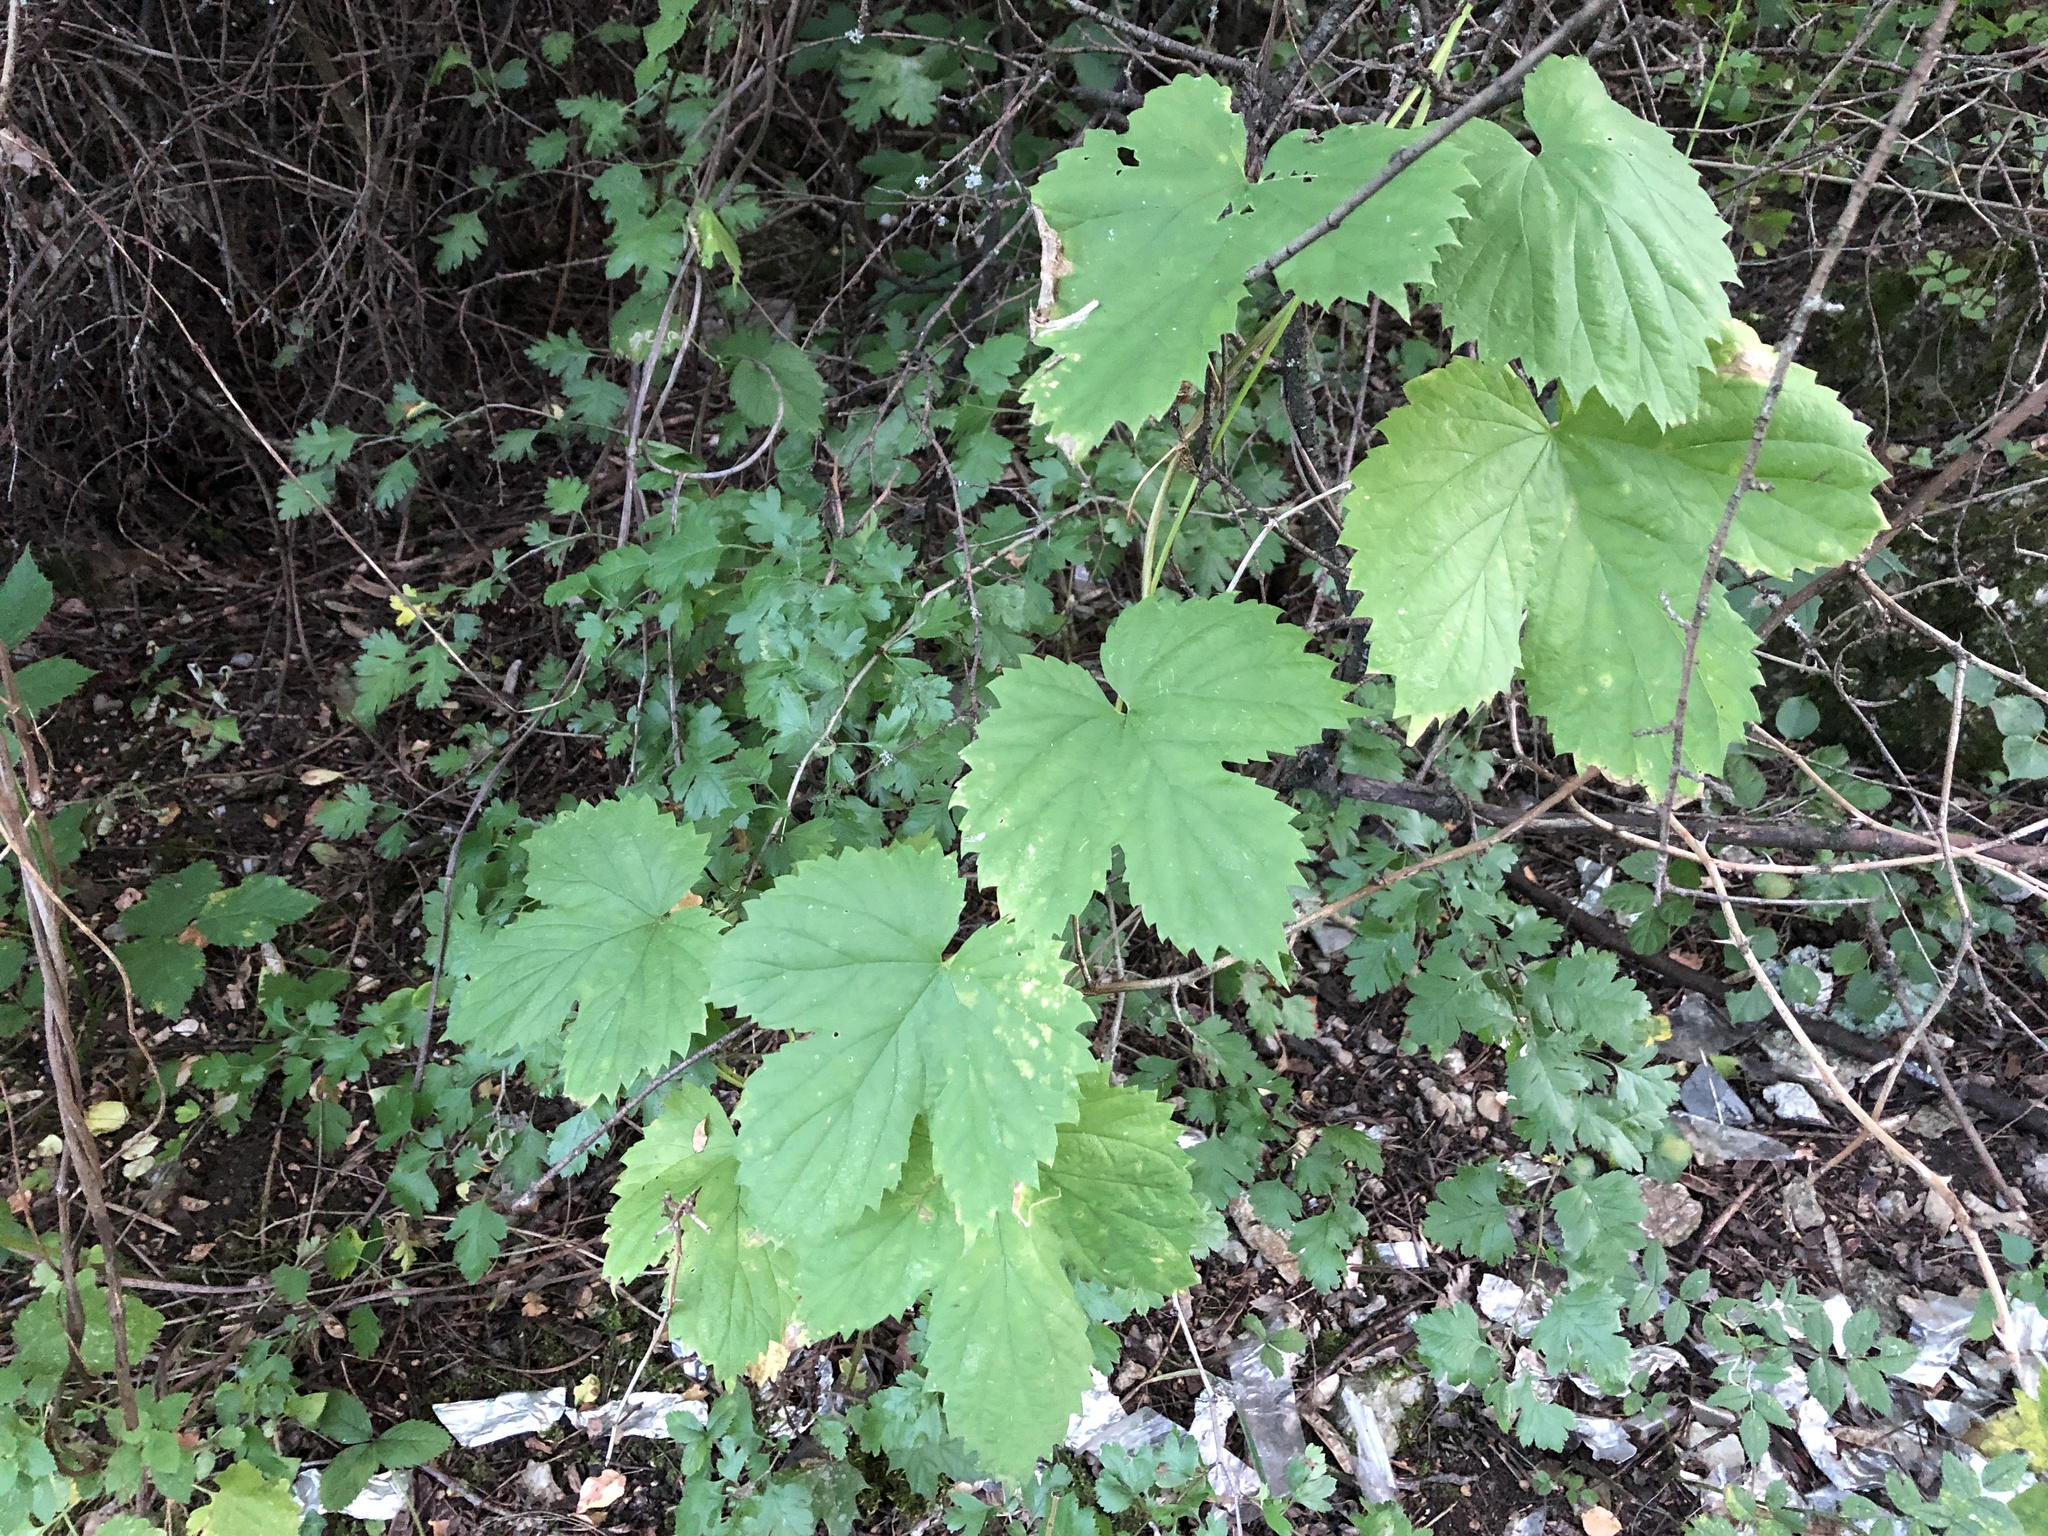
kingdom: Plantae
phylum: Tracheophyta
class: Magnoliopsida
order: Rosales
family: Cannabaceae
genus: Humulus
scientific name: Humulus lupulus
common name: Hop
